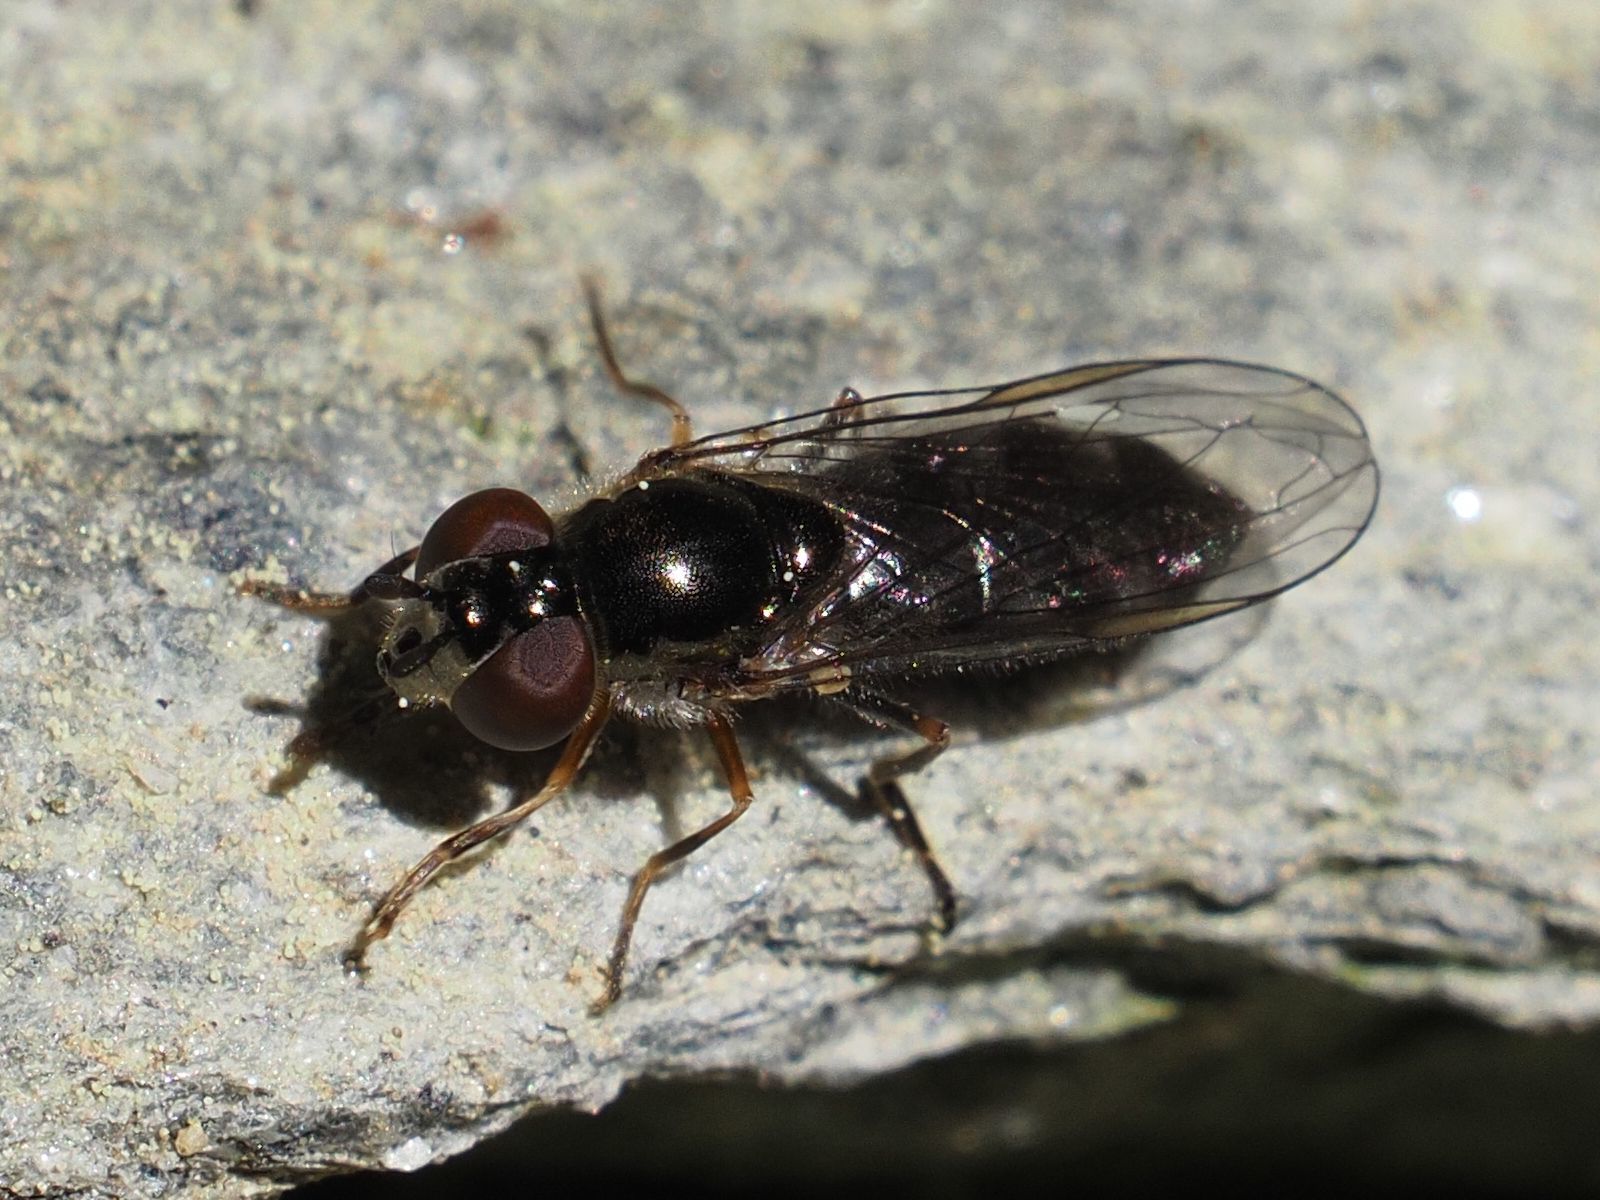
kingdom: Animalia
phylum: Arthropoda
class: Insecta
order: Diptera
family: Syrphidae
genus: Platycheirus
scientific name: Platycheirus albimanus
